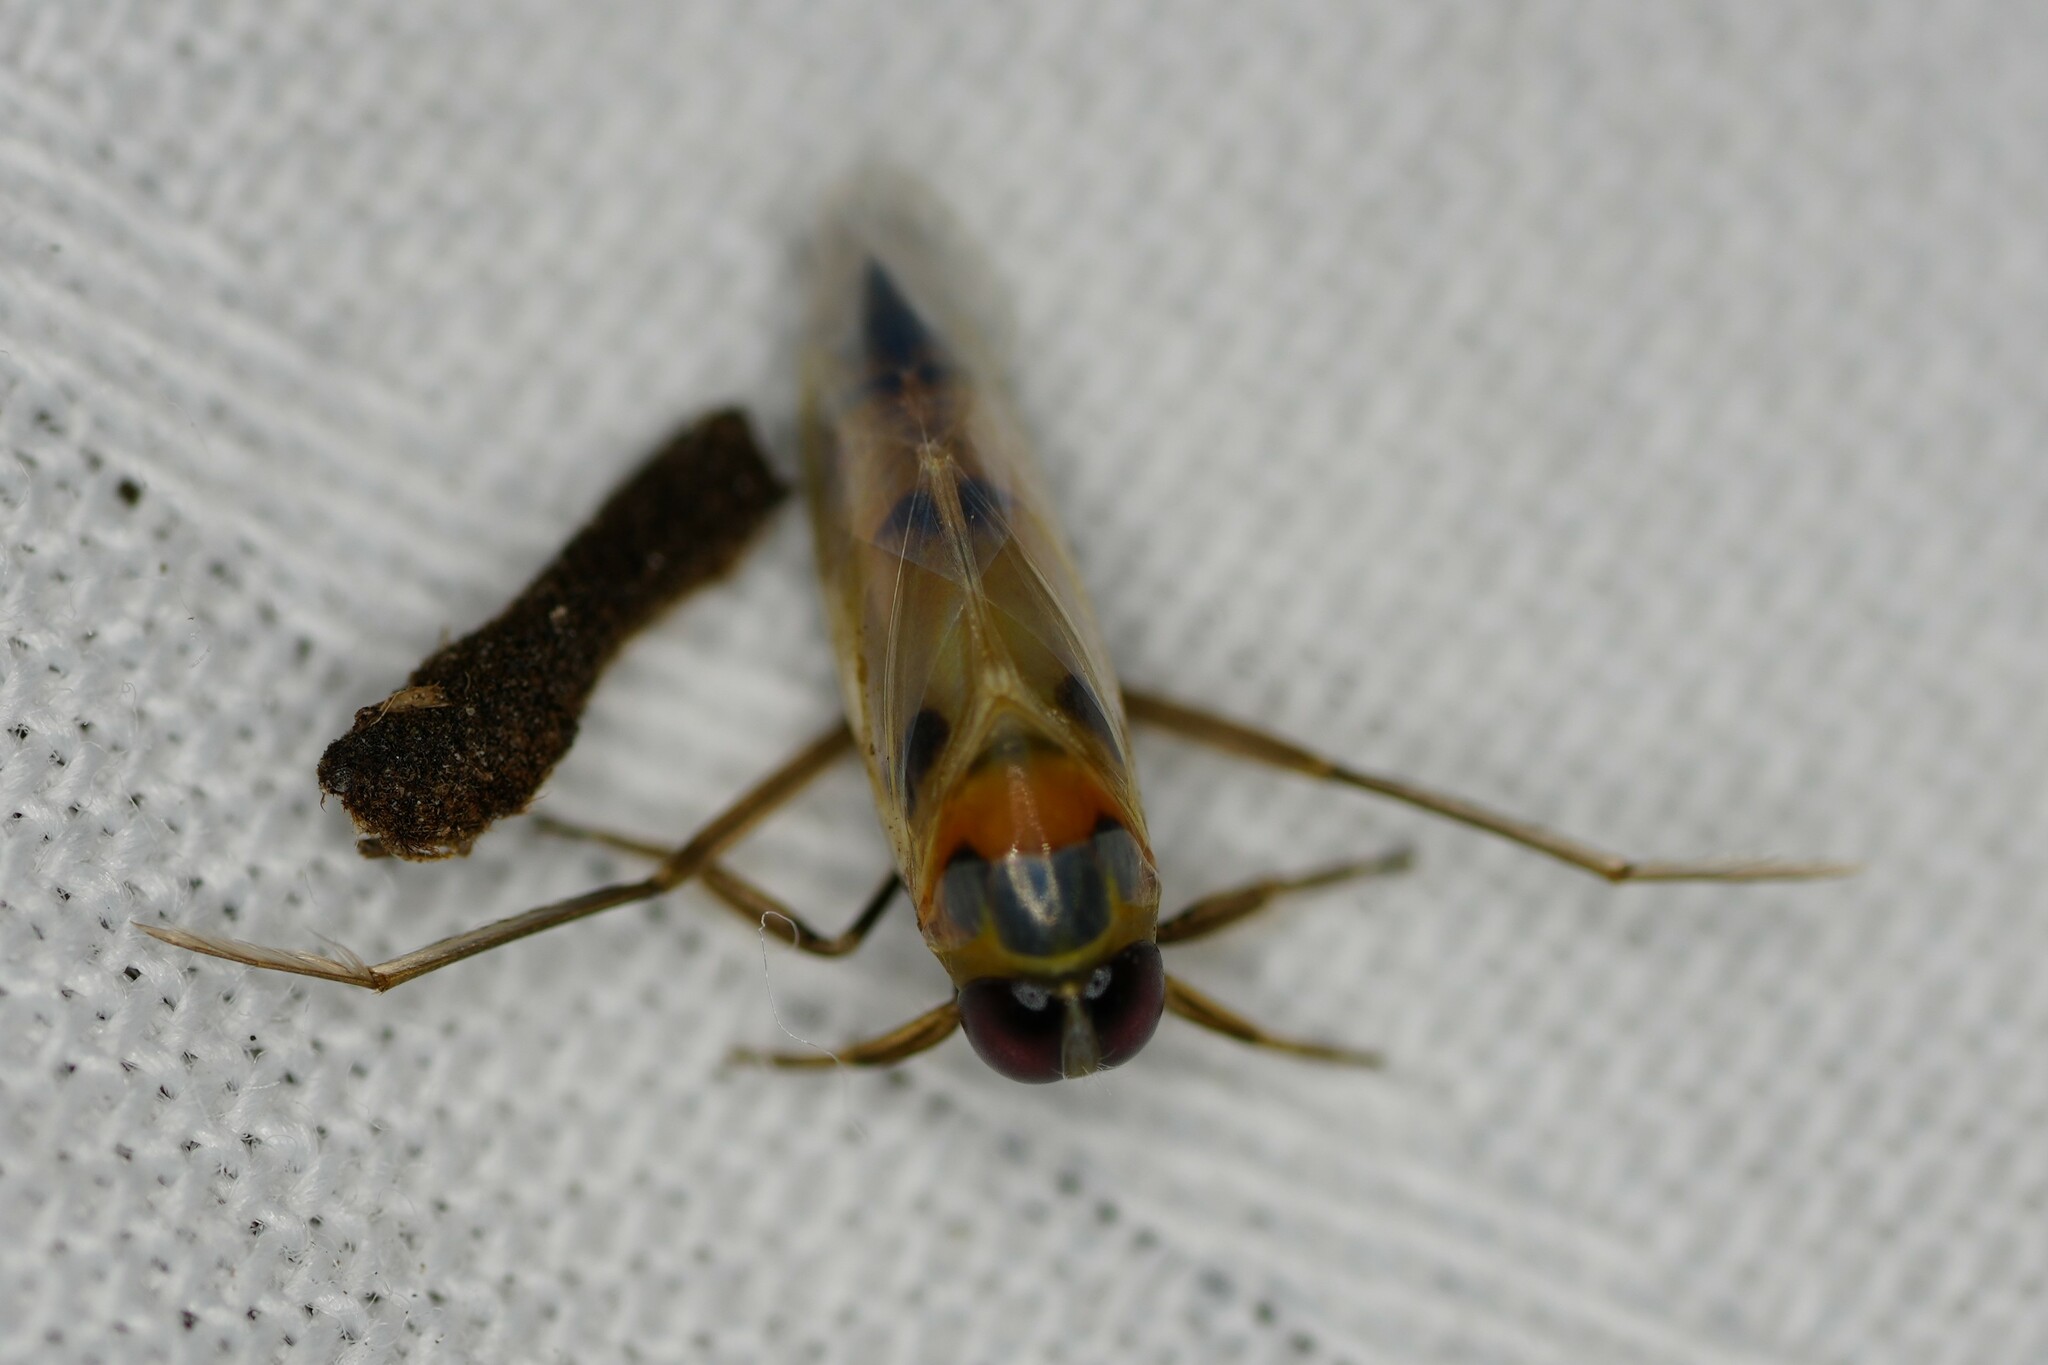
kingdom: Animalia
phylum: Arthropoda
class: Insecta
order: Hemiptera
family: Notonectidae
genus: Buenoa
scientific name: Buenoa
